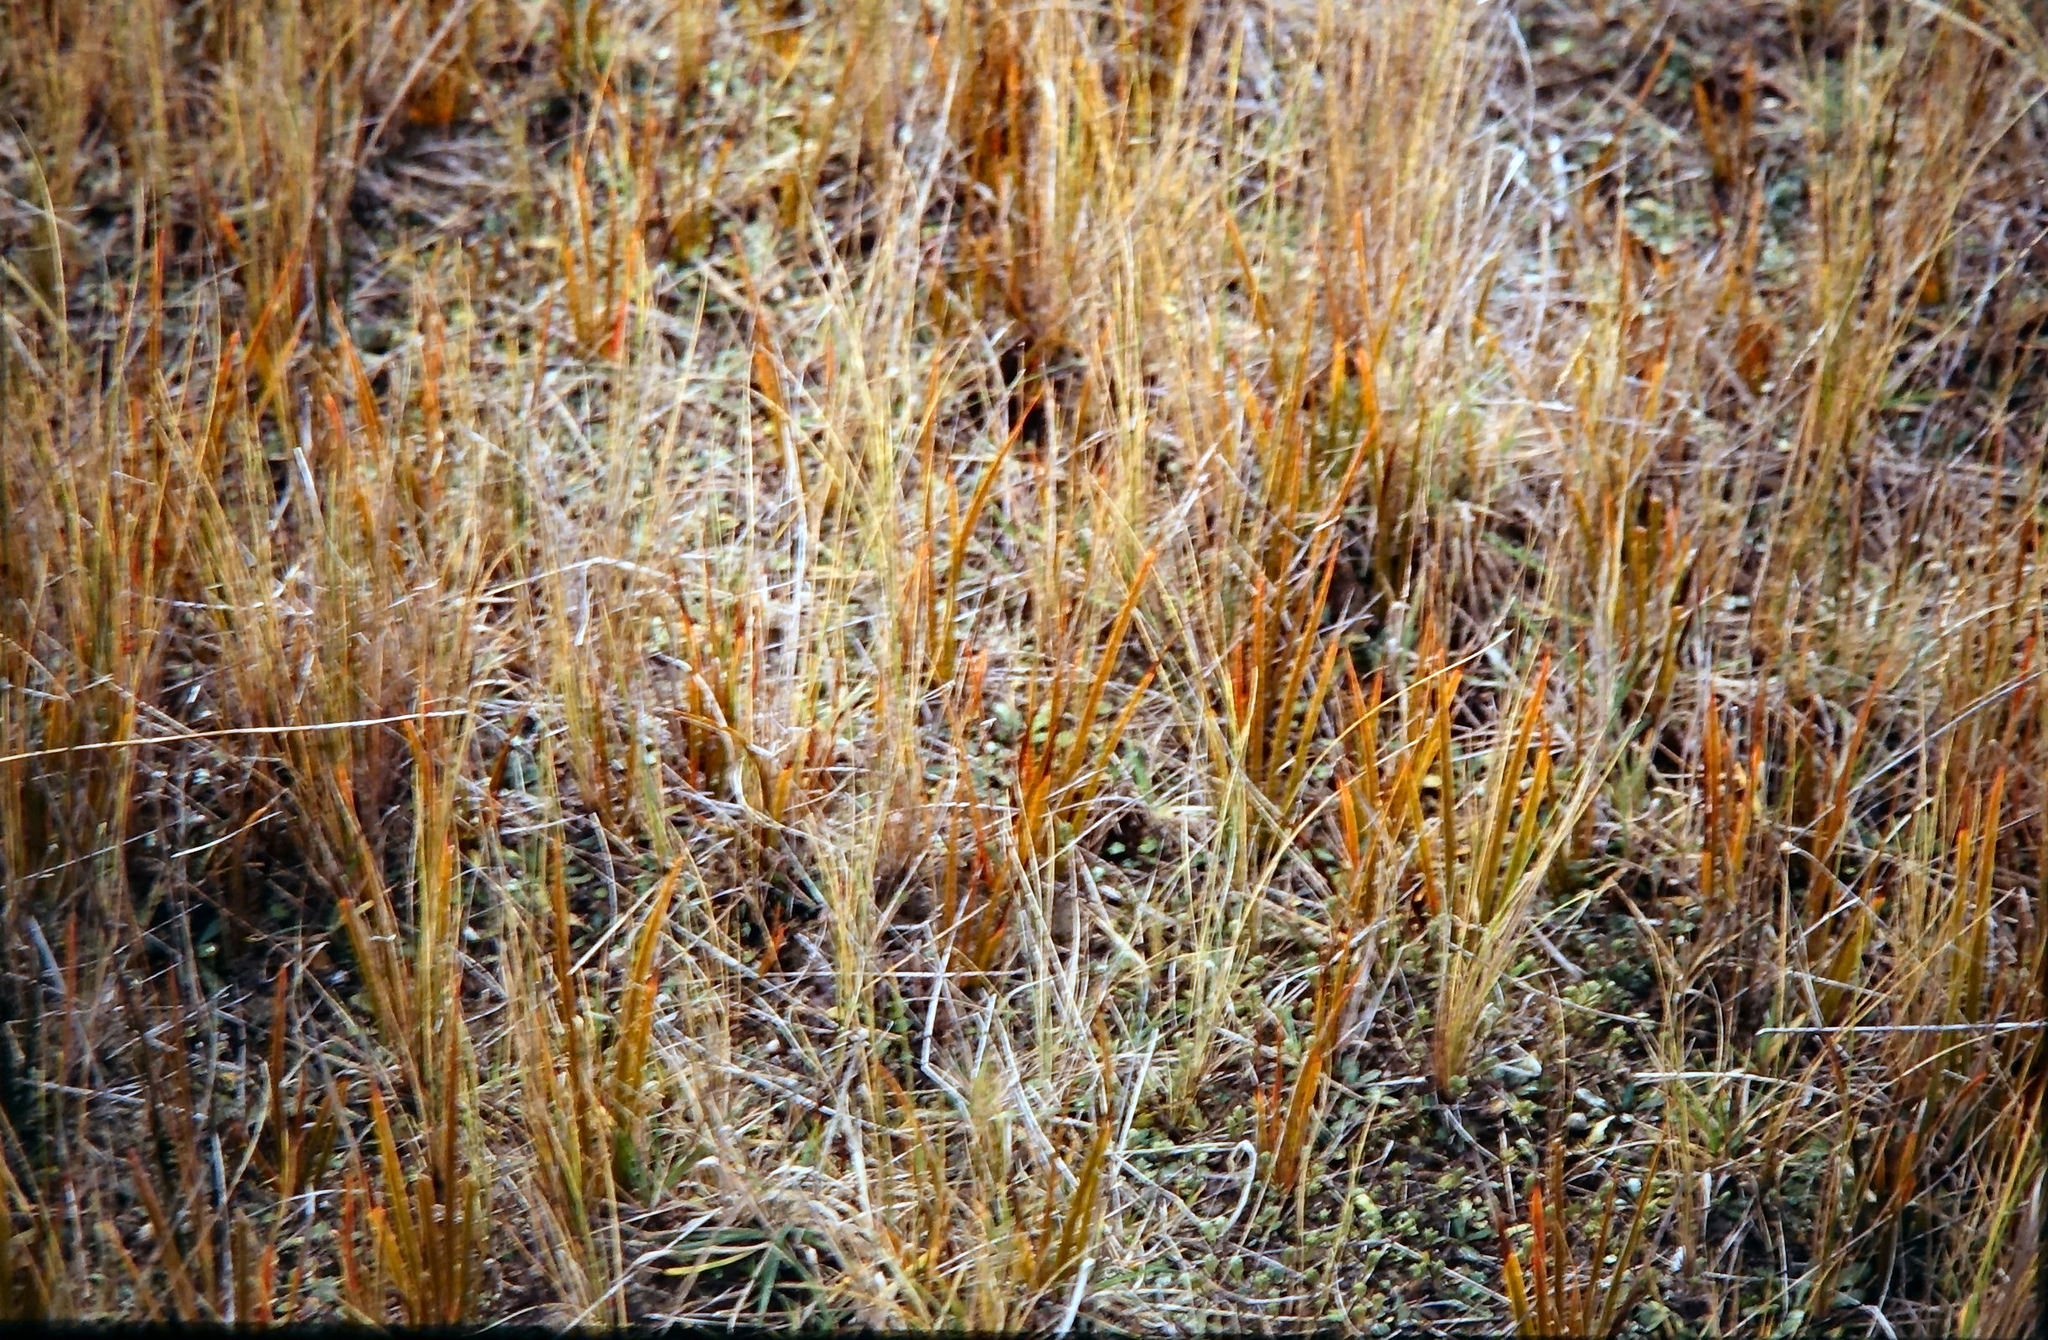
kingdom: Plantae
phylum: Tracheophyta
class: Liliopsida
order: Asparagales
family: Iridaceae
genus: Libertia
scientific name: Libertia peregrinans
